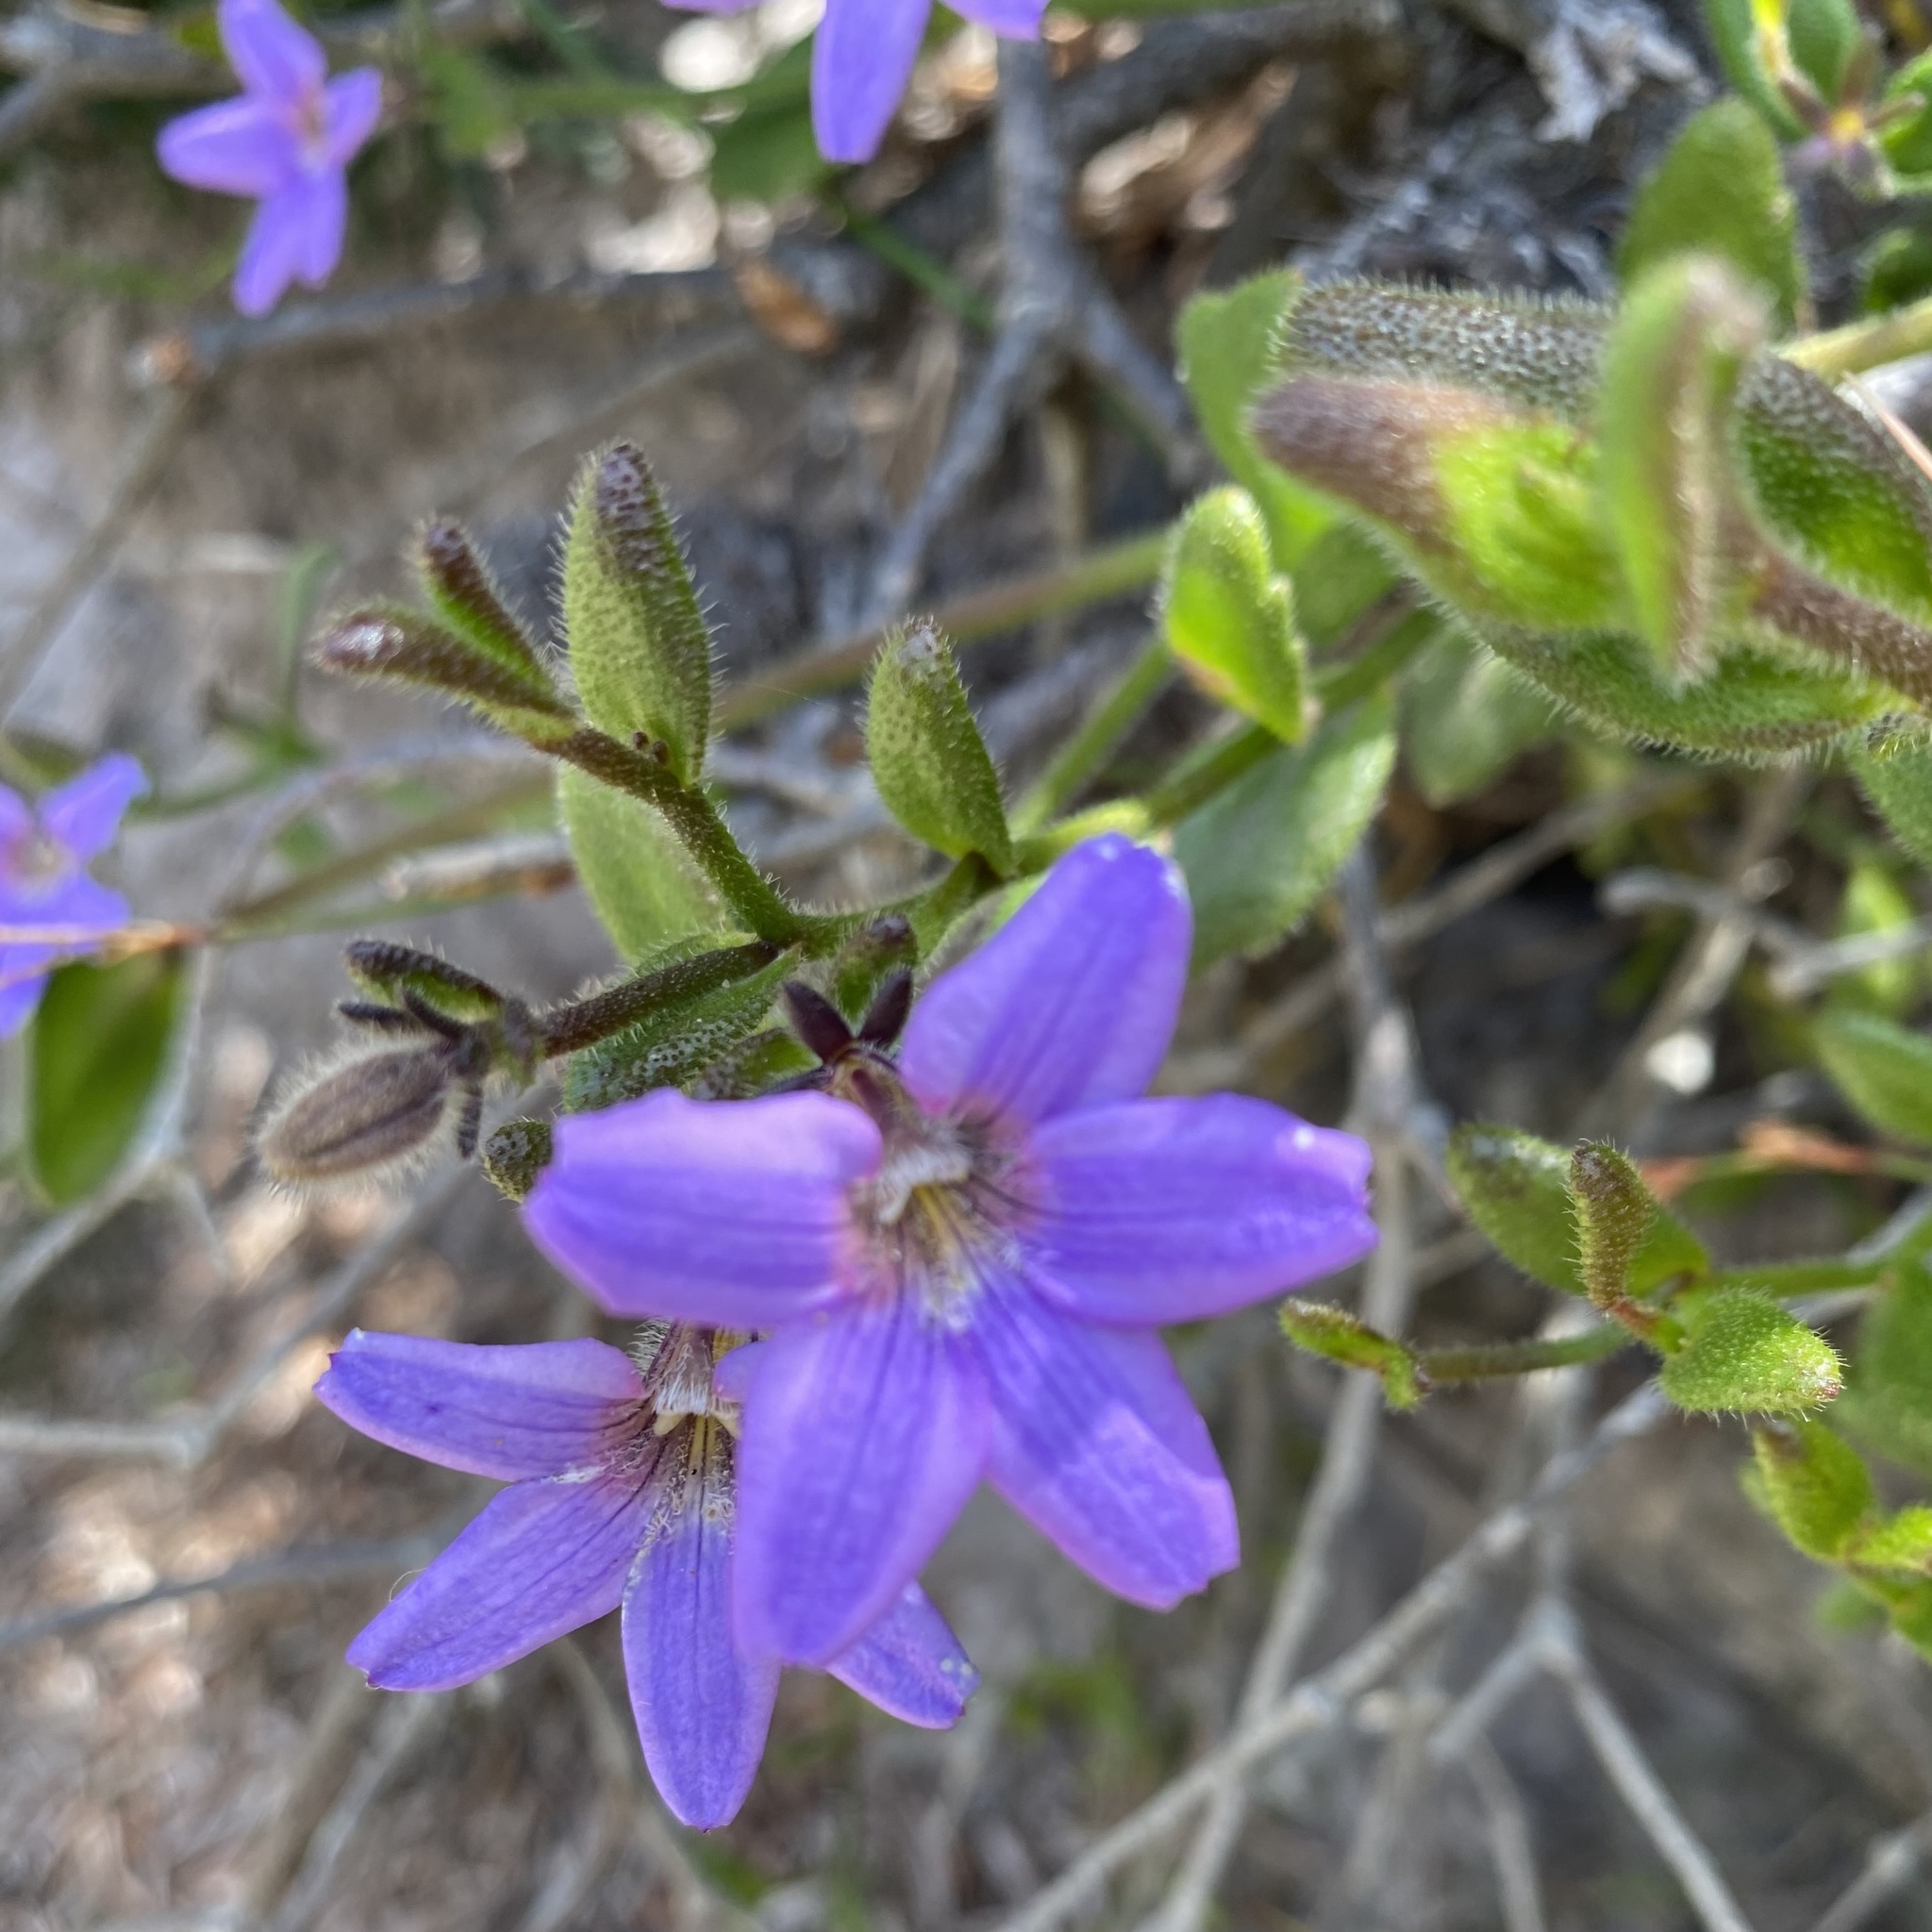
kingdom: Plantae
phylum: Tracheophyta
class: Magnoliopsida
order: Asterales
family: Goodeniaceae
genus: Scaevola
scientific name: Scaevola ramosissima
